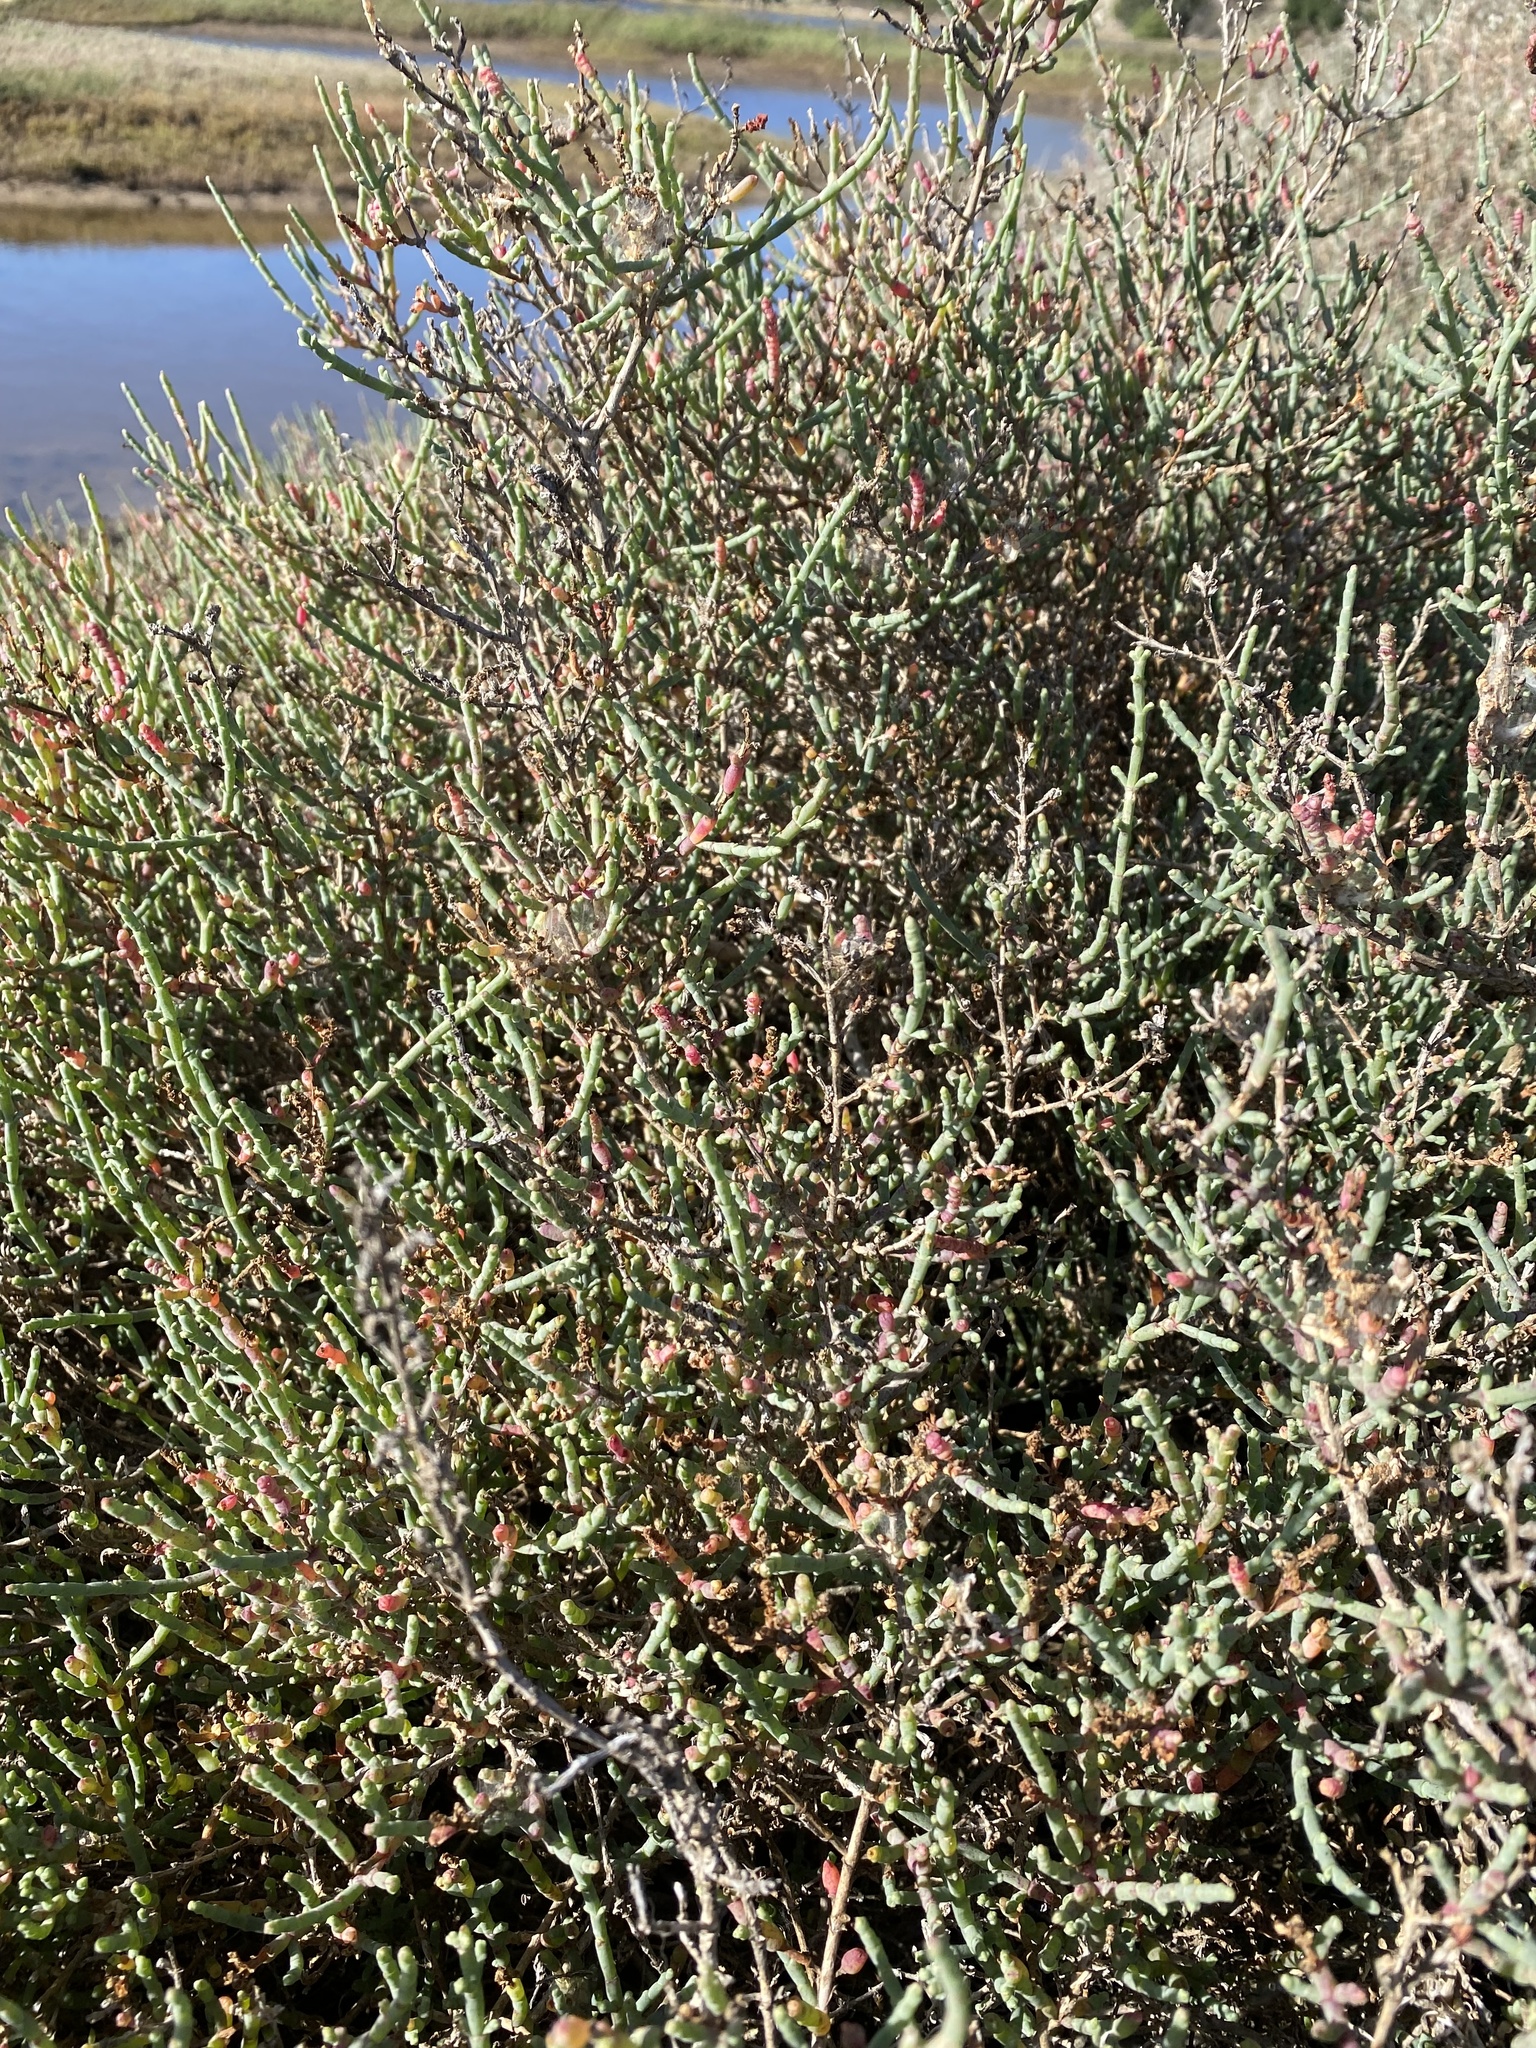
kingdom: Plantae
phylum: Tracheophyta
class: Magnoliopsida
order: Caryophyllales
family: Amaranthaceae
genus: Salicornia
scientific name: Salicornia pillansii
